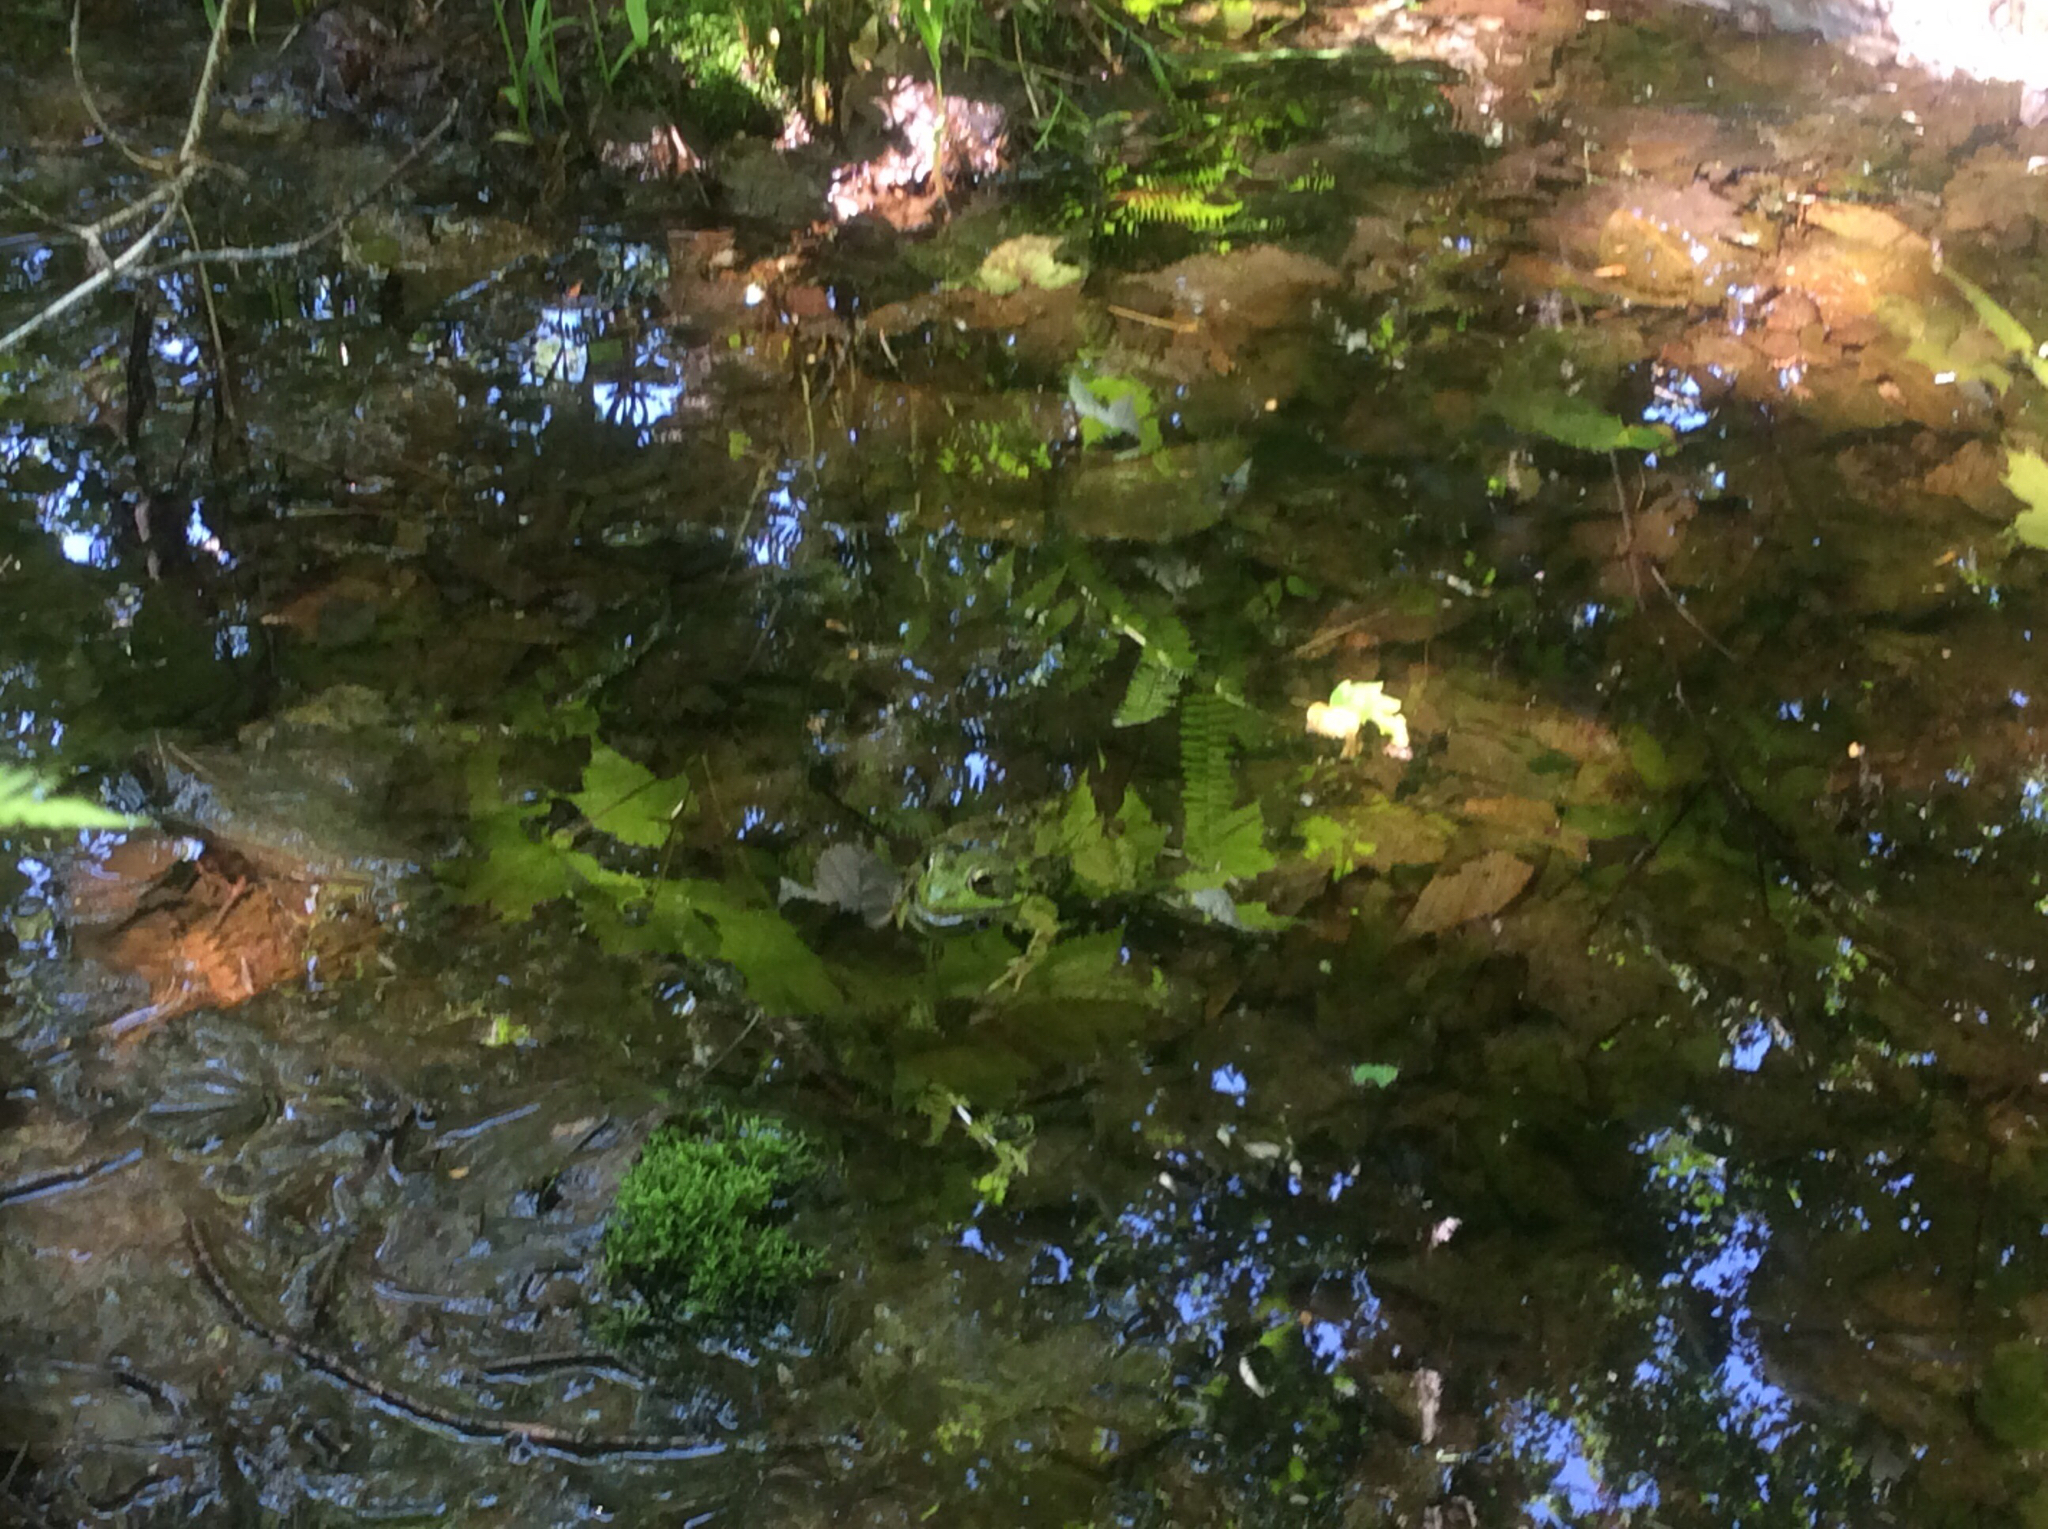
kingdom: Animalia
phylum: Chordata
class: Amphibia
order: Anura
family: Ranidae
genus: Lithobates
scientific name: Lithobates
